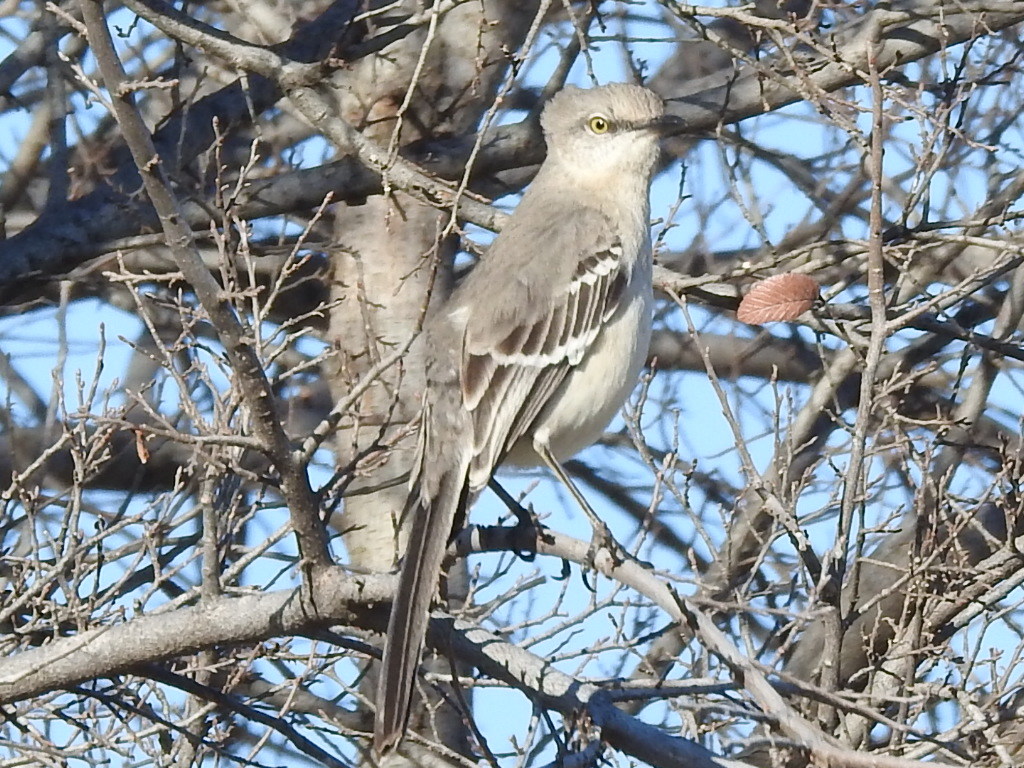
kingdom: Animalia
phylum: Chordata
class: Aves
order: Passeriformes
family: Mimidae
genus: Mimus
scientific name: Mimus polyglottos
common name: Northern mockingbird
